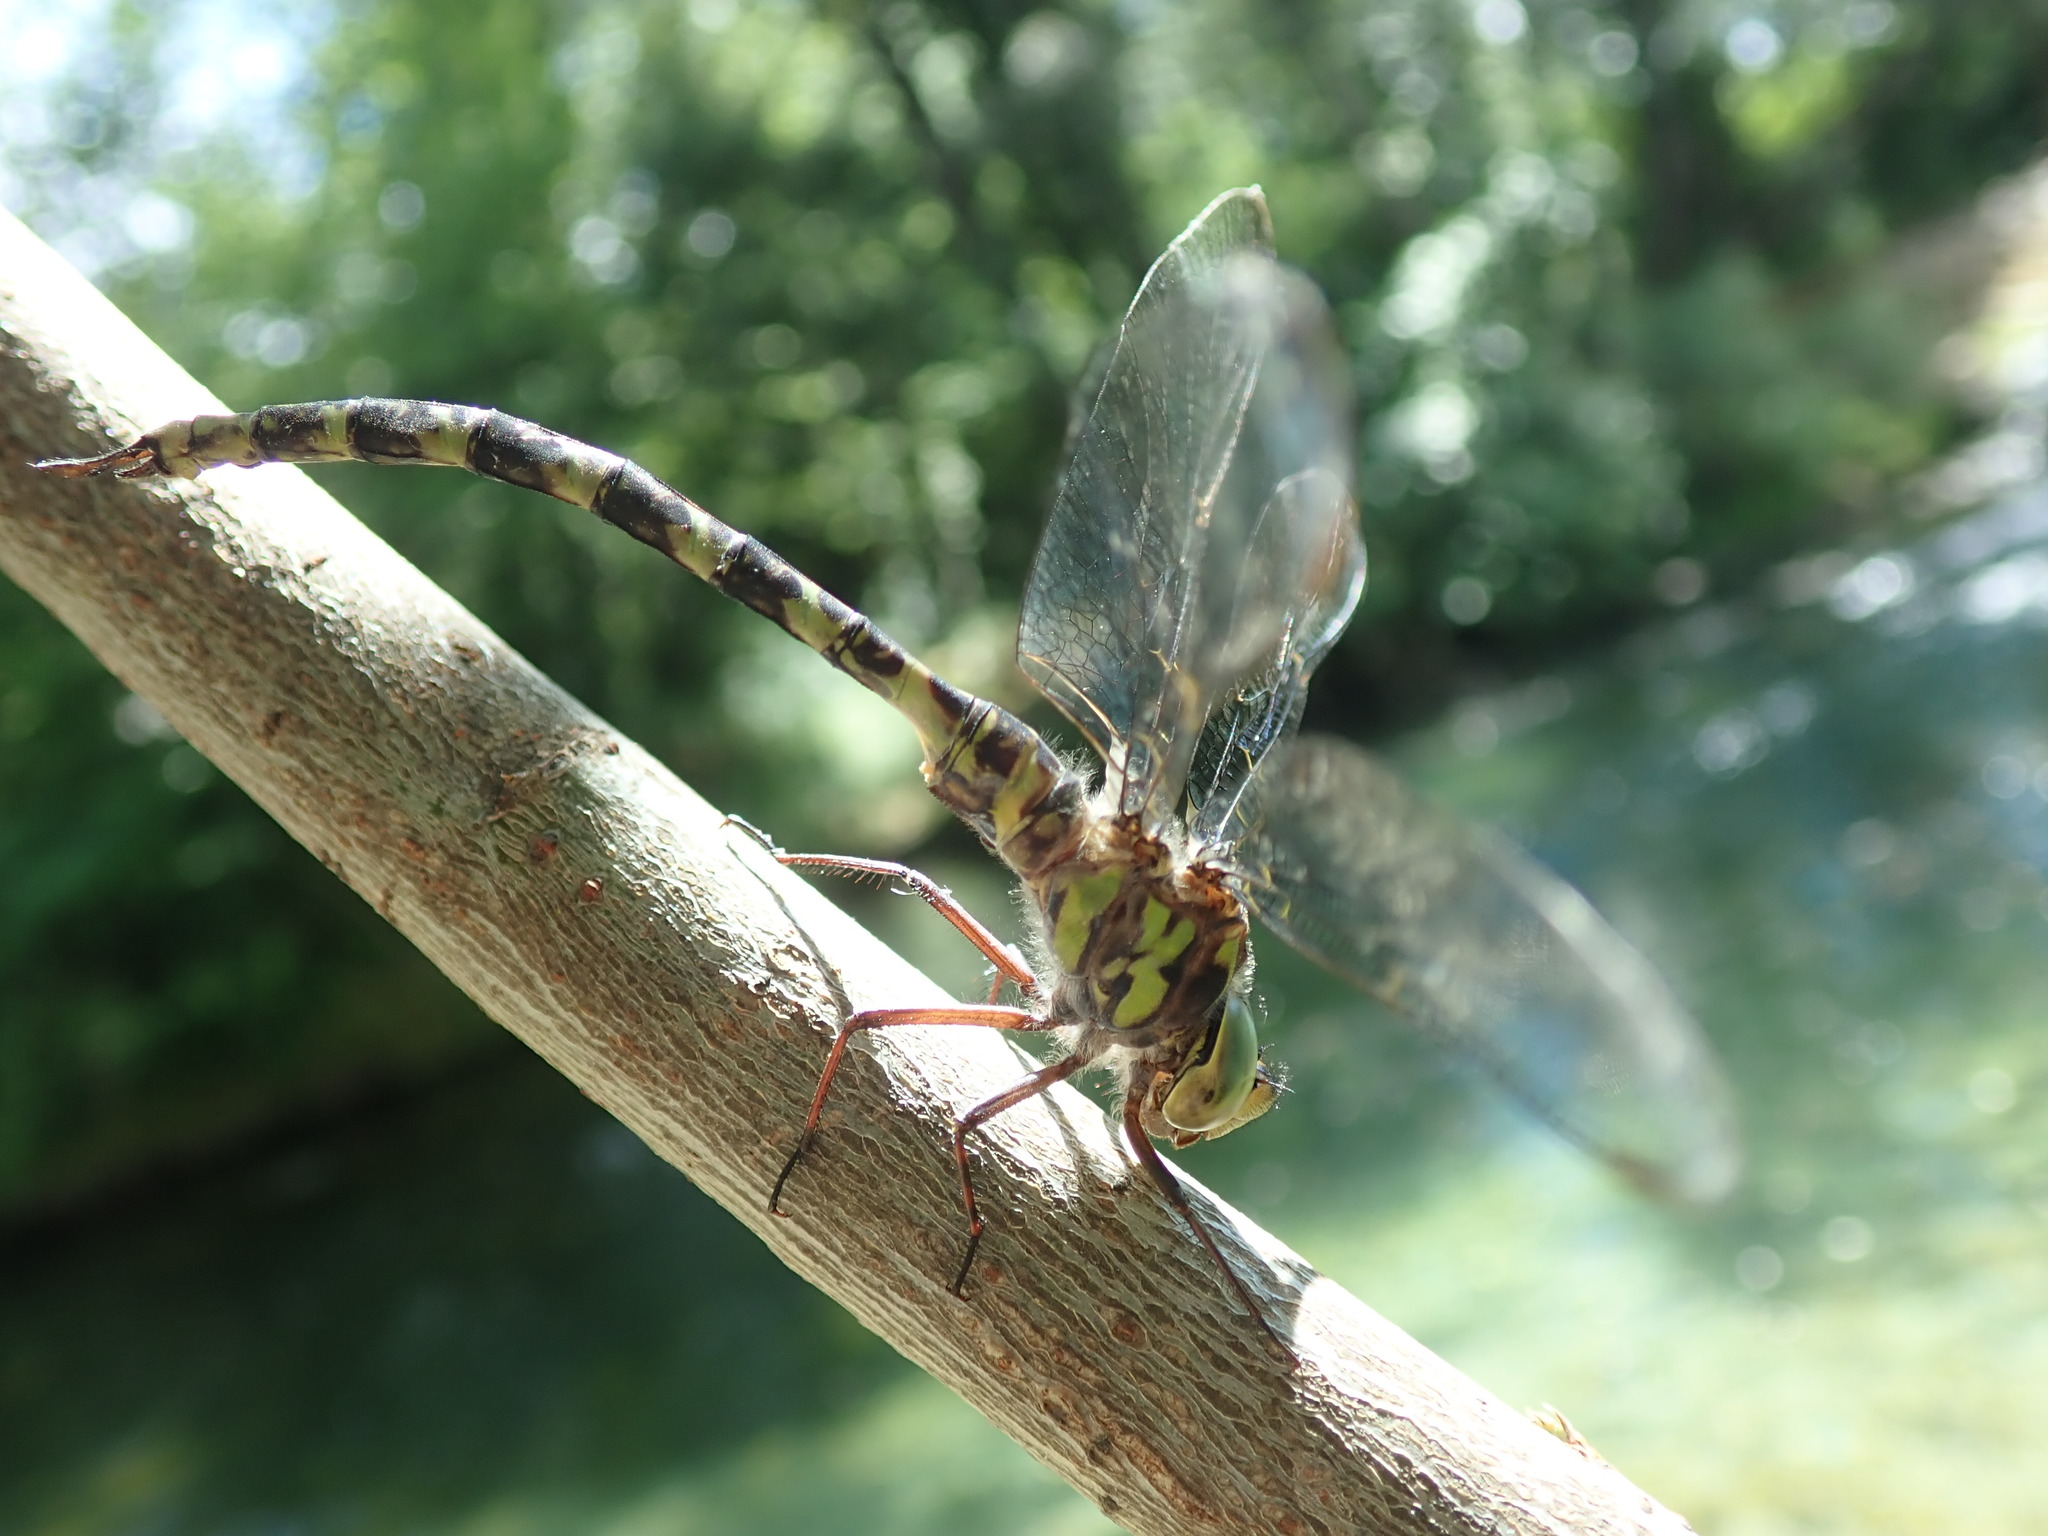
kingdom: Animalia
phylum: Arthropoda
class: Insecta
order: Odonata
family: Aeshnidae
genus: Boyeria
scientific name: Boyeria irene
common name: Western spectre
